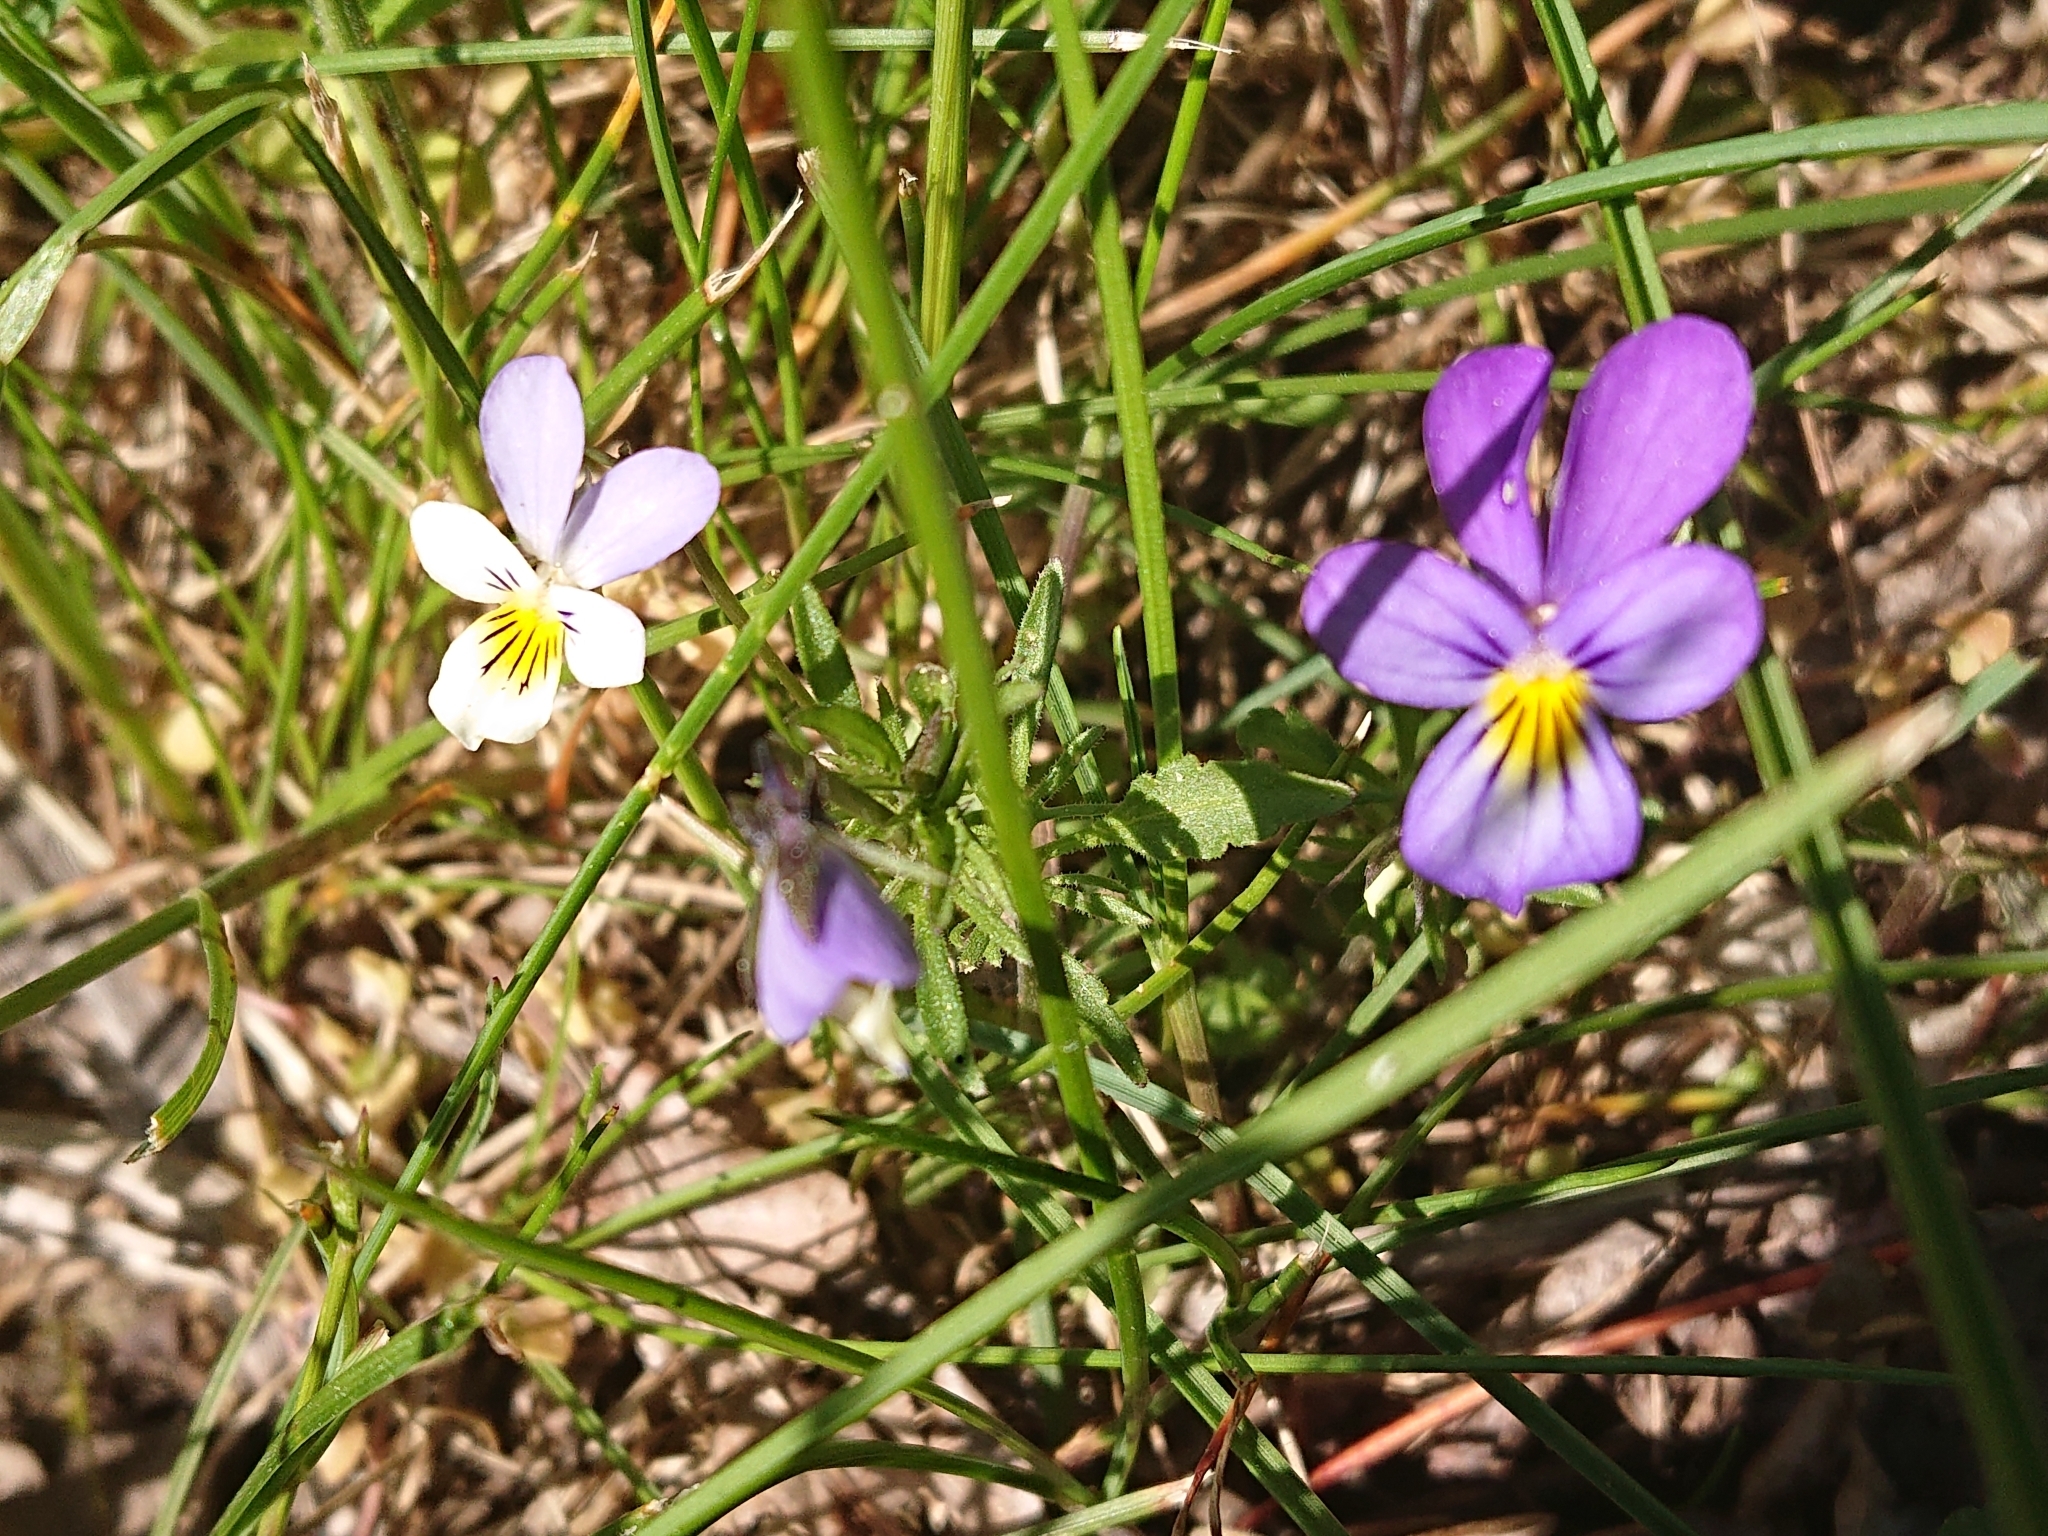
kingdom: Plantae
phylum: Tracheophyta
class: Magnoliopsida
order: Malpighiales
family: Violaceae
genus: Viola
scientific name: Viola tricolor
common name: Pansy
